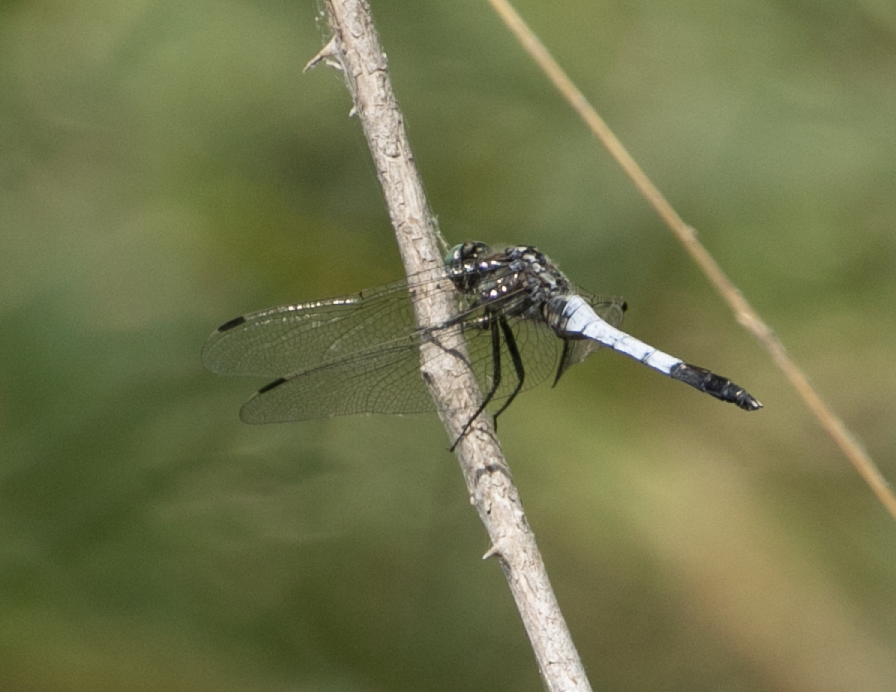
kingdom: Animalia
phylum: Arthropoda
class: Insecta
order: Odonata
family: Libellulidae
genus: Orthetrum
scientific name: Orthetrum albistylum
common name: White-tailed skimmer
